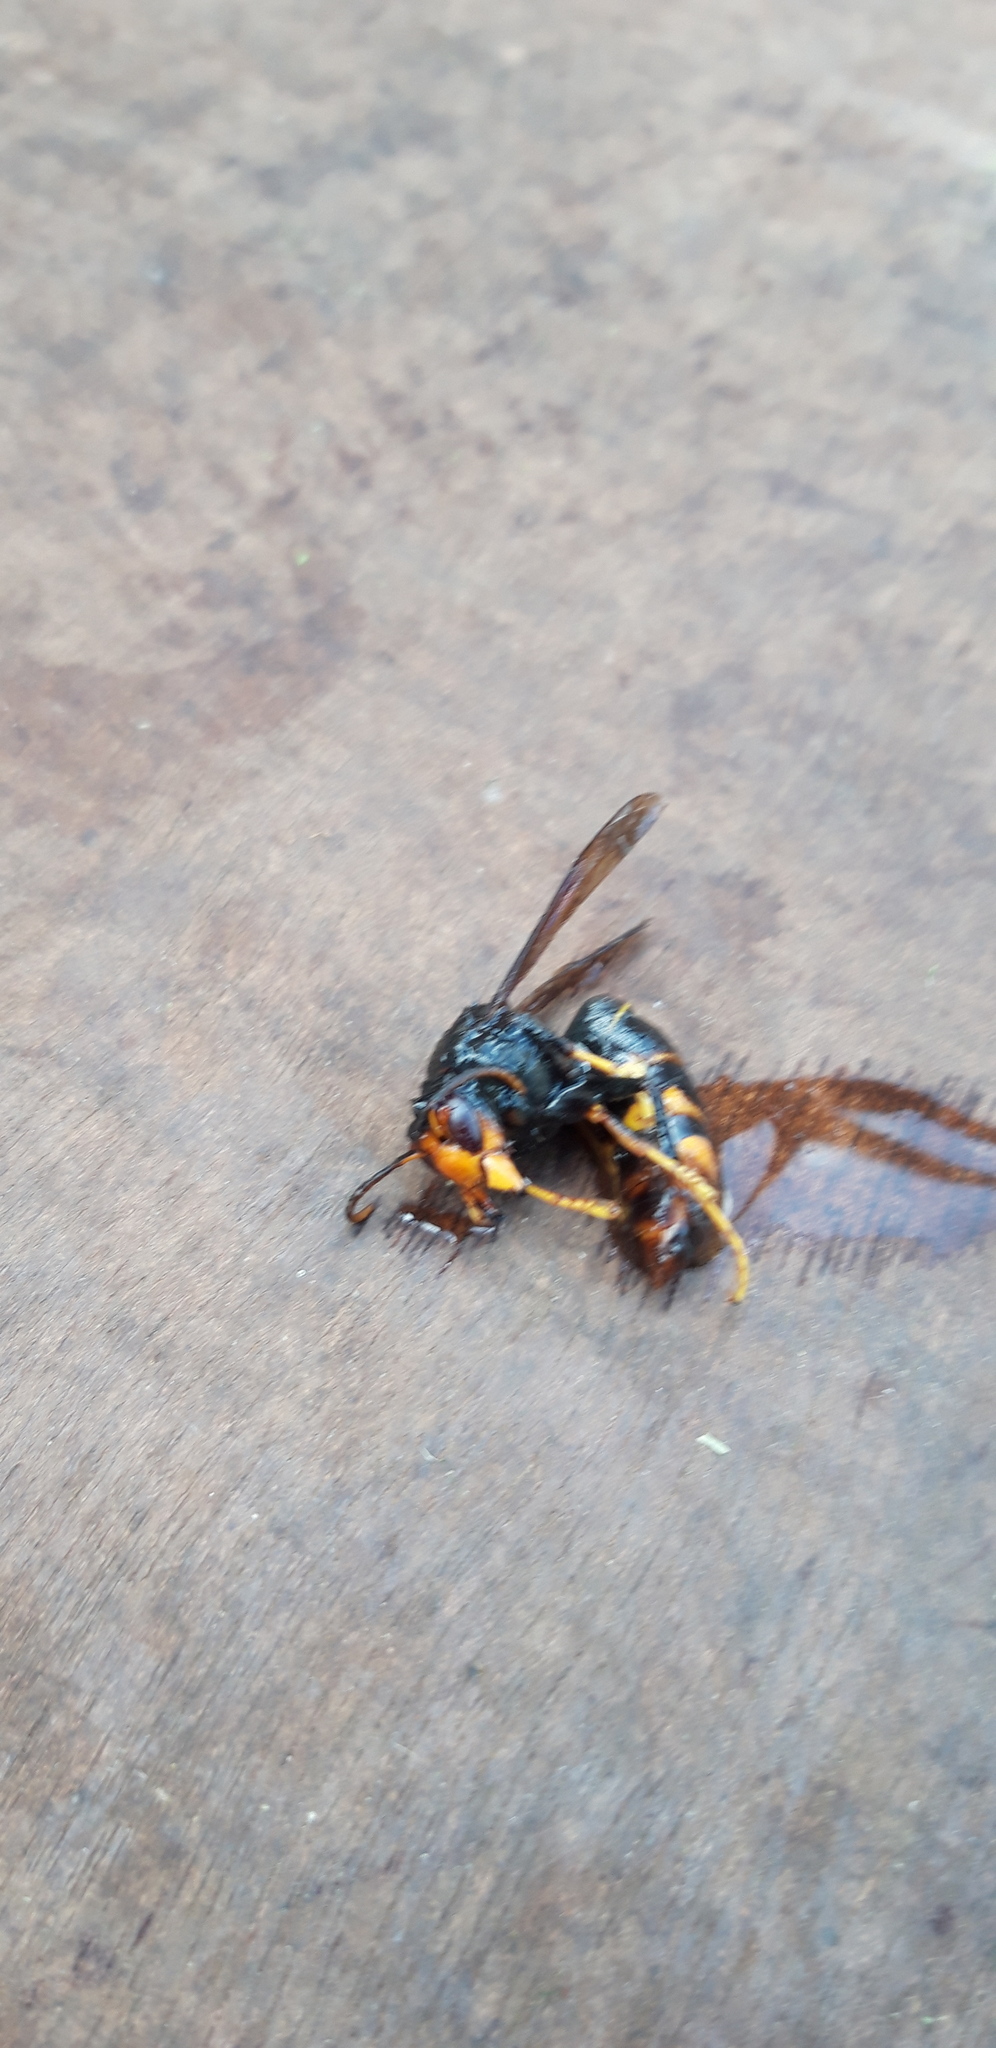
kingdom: Animalia
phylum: Arthropoda
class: Insecta
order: Hymenoptera
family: Vespidae
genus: Vespa
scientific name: Vespa velutina
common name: Asian hornet
